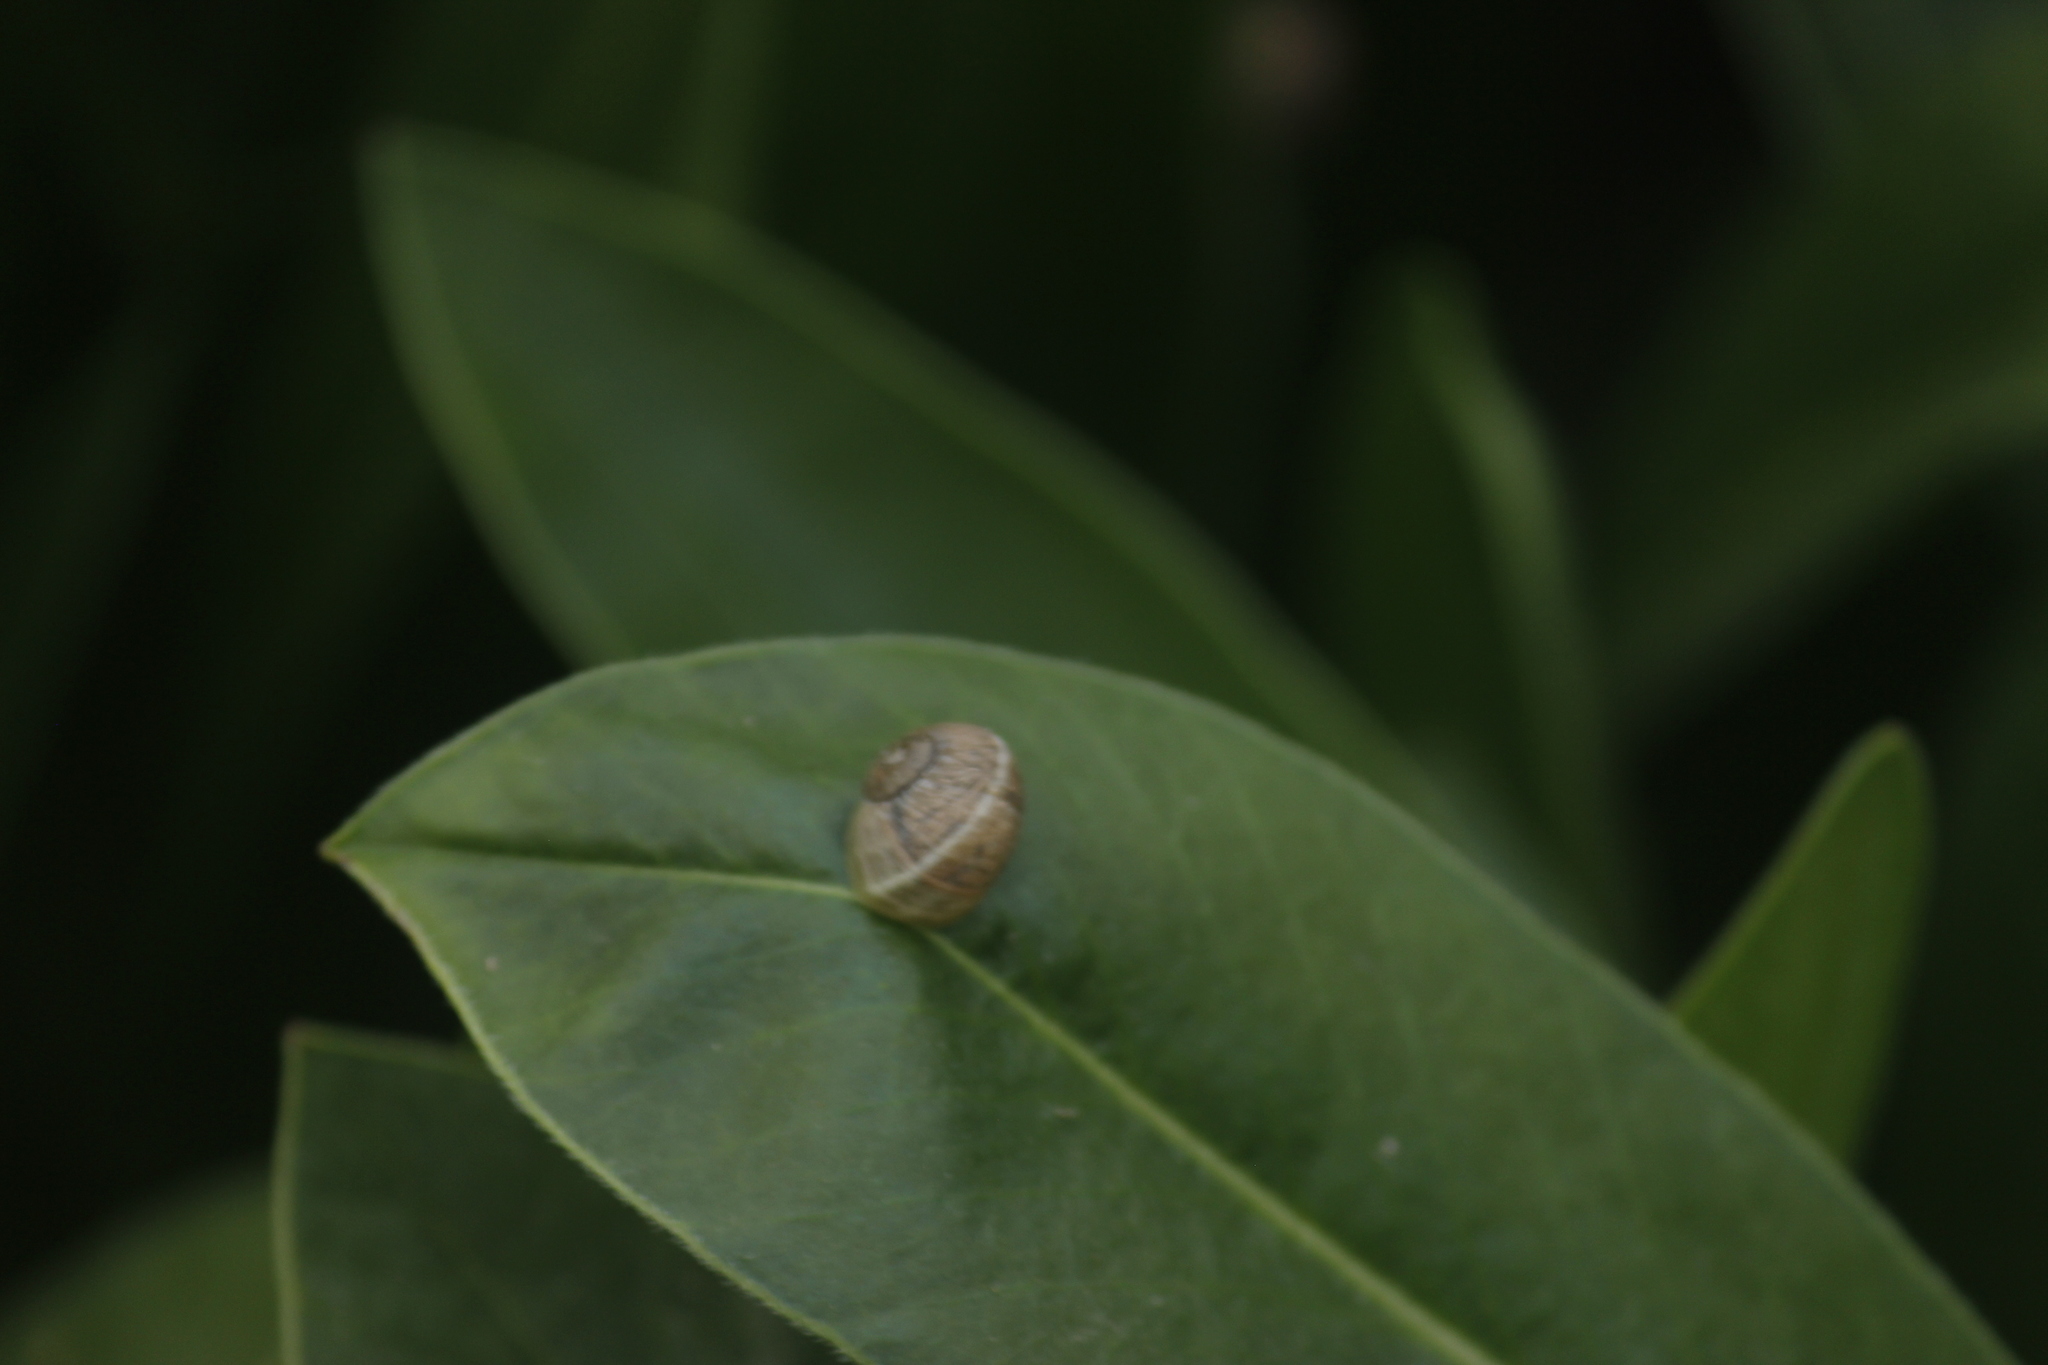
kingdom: Animalia
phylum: Mollusca
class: Gastropoda
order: Stylommatophora
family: Helicidae
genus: Cornu
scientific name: Cornu aspersum
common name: Brown garden snail
